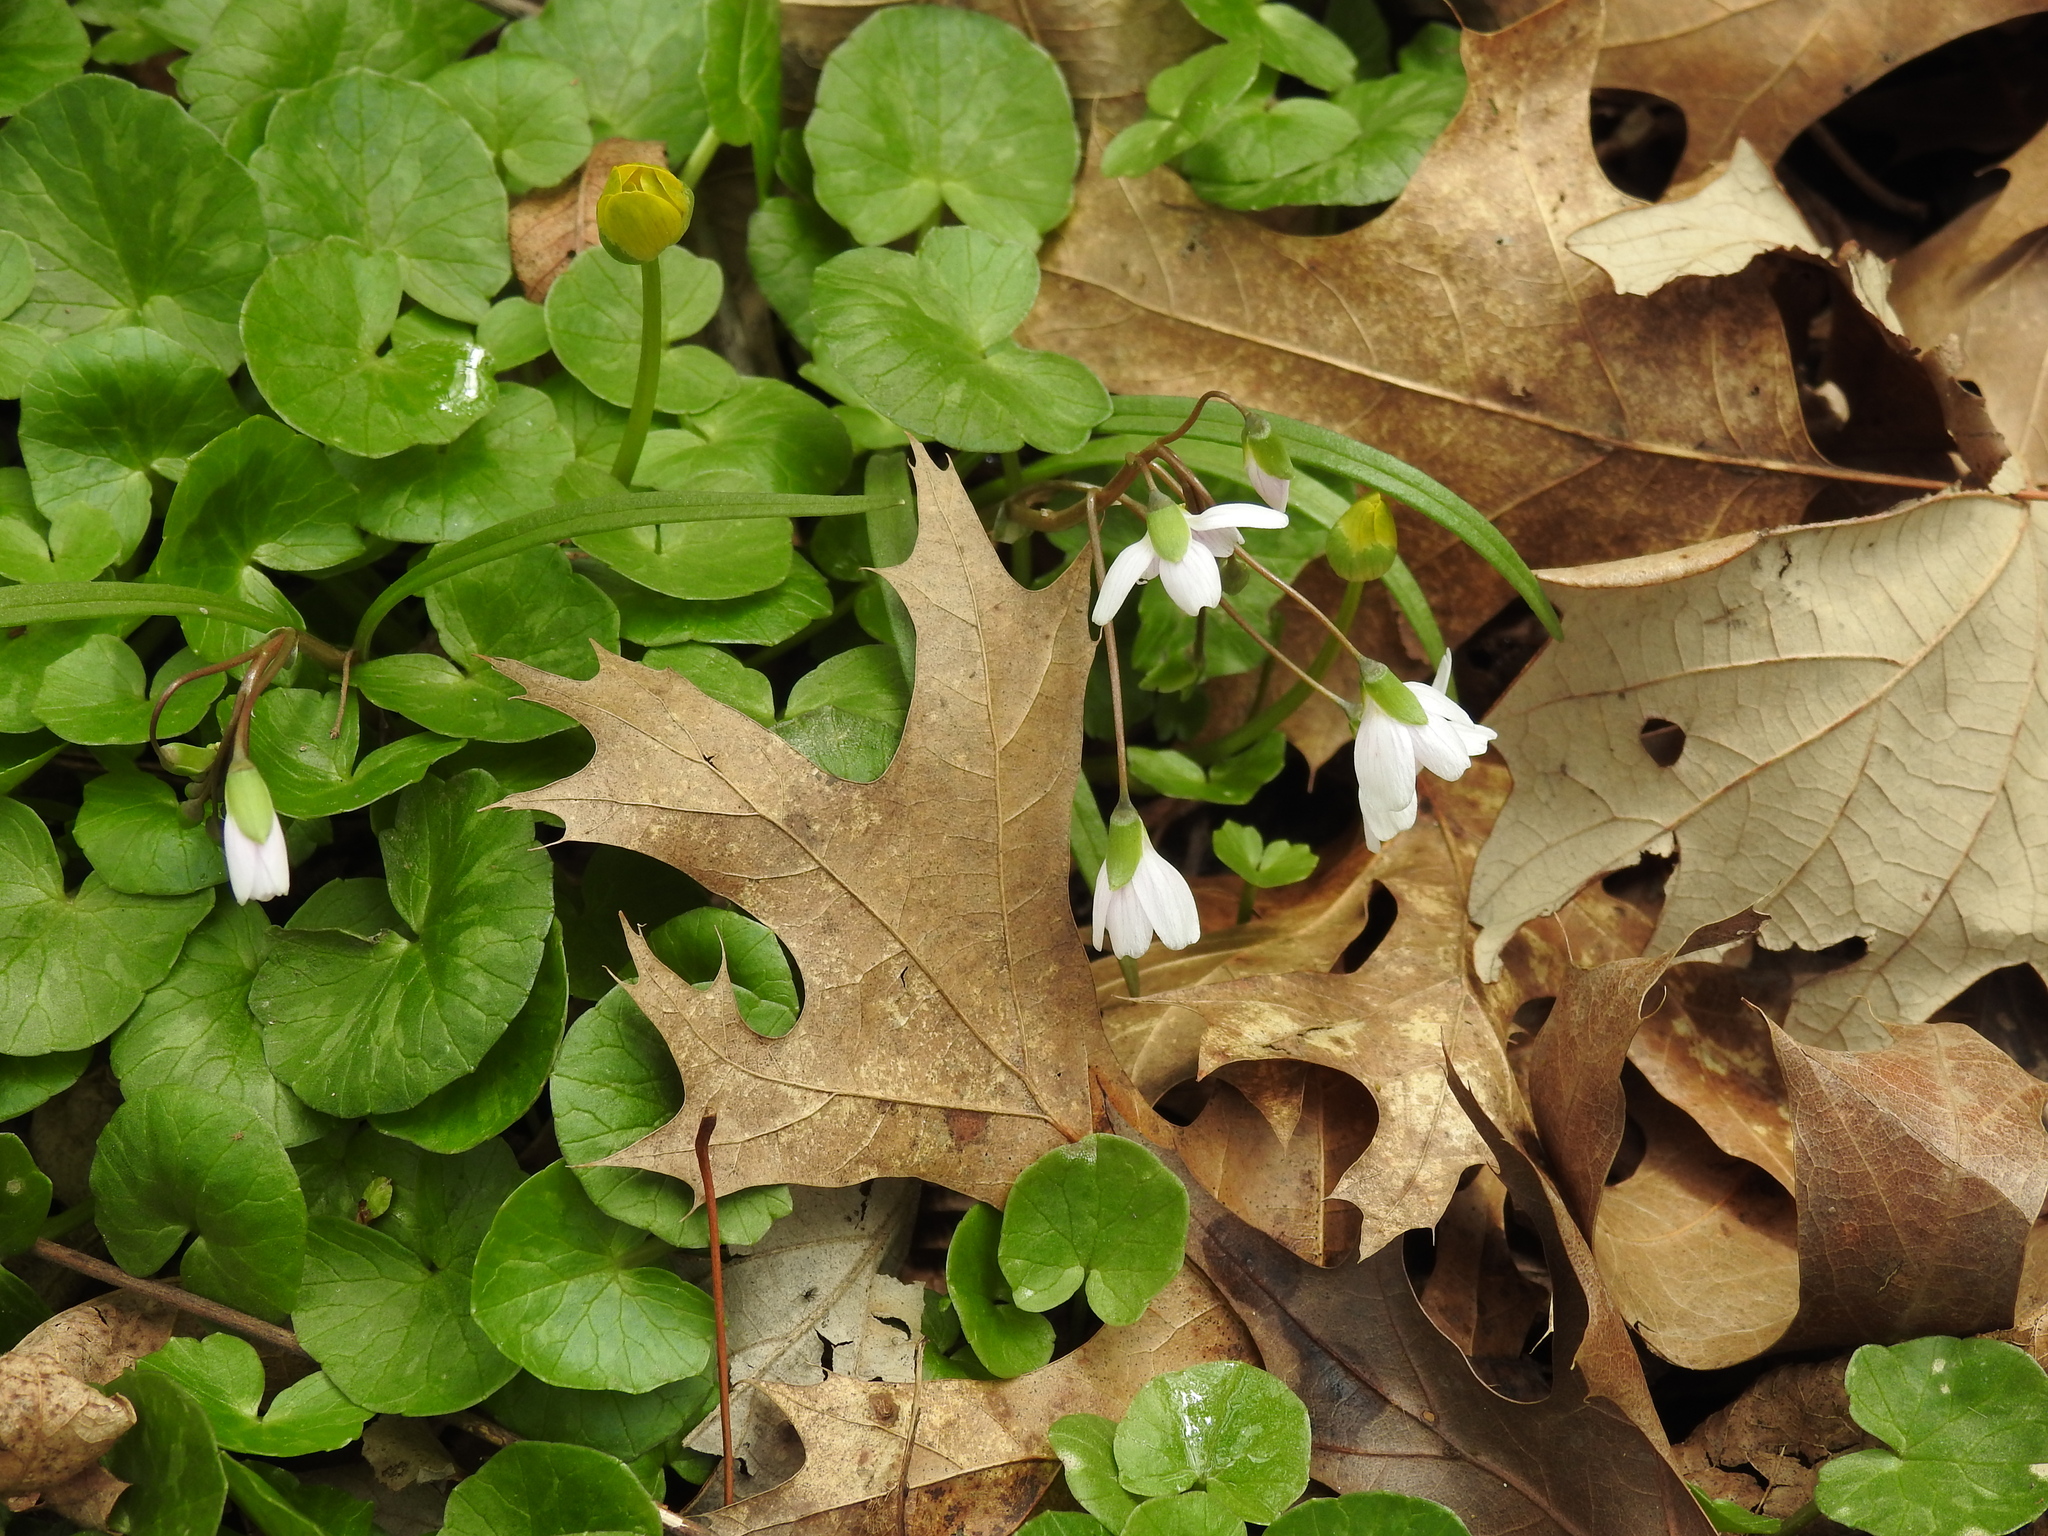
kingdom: Plantae
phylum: Tracheophyta
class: Magnoliopsida
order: Caryophyllales
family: Montiaceae
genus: Claytonia
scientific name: Claytonia virginica
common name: Virginia springbeauty
